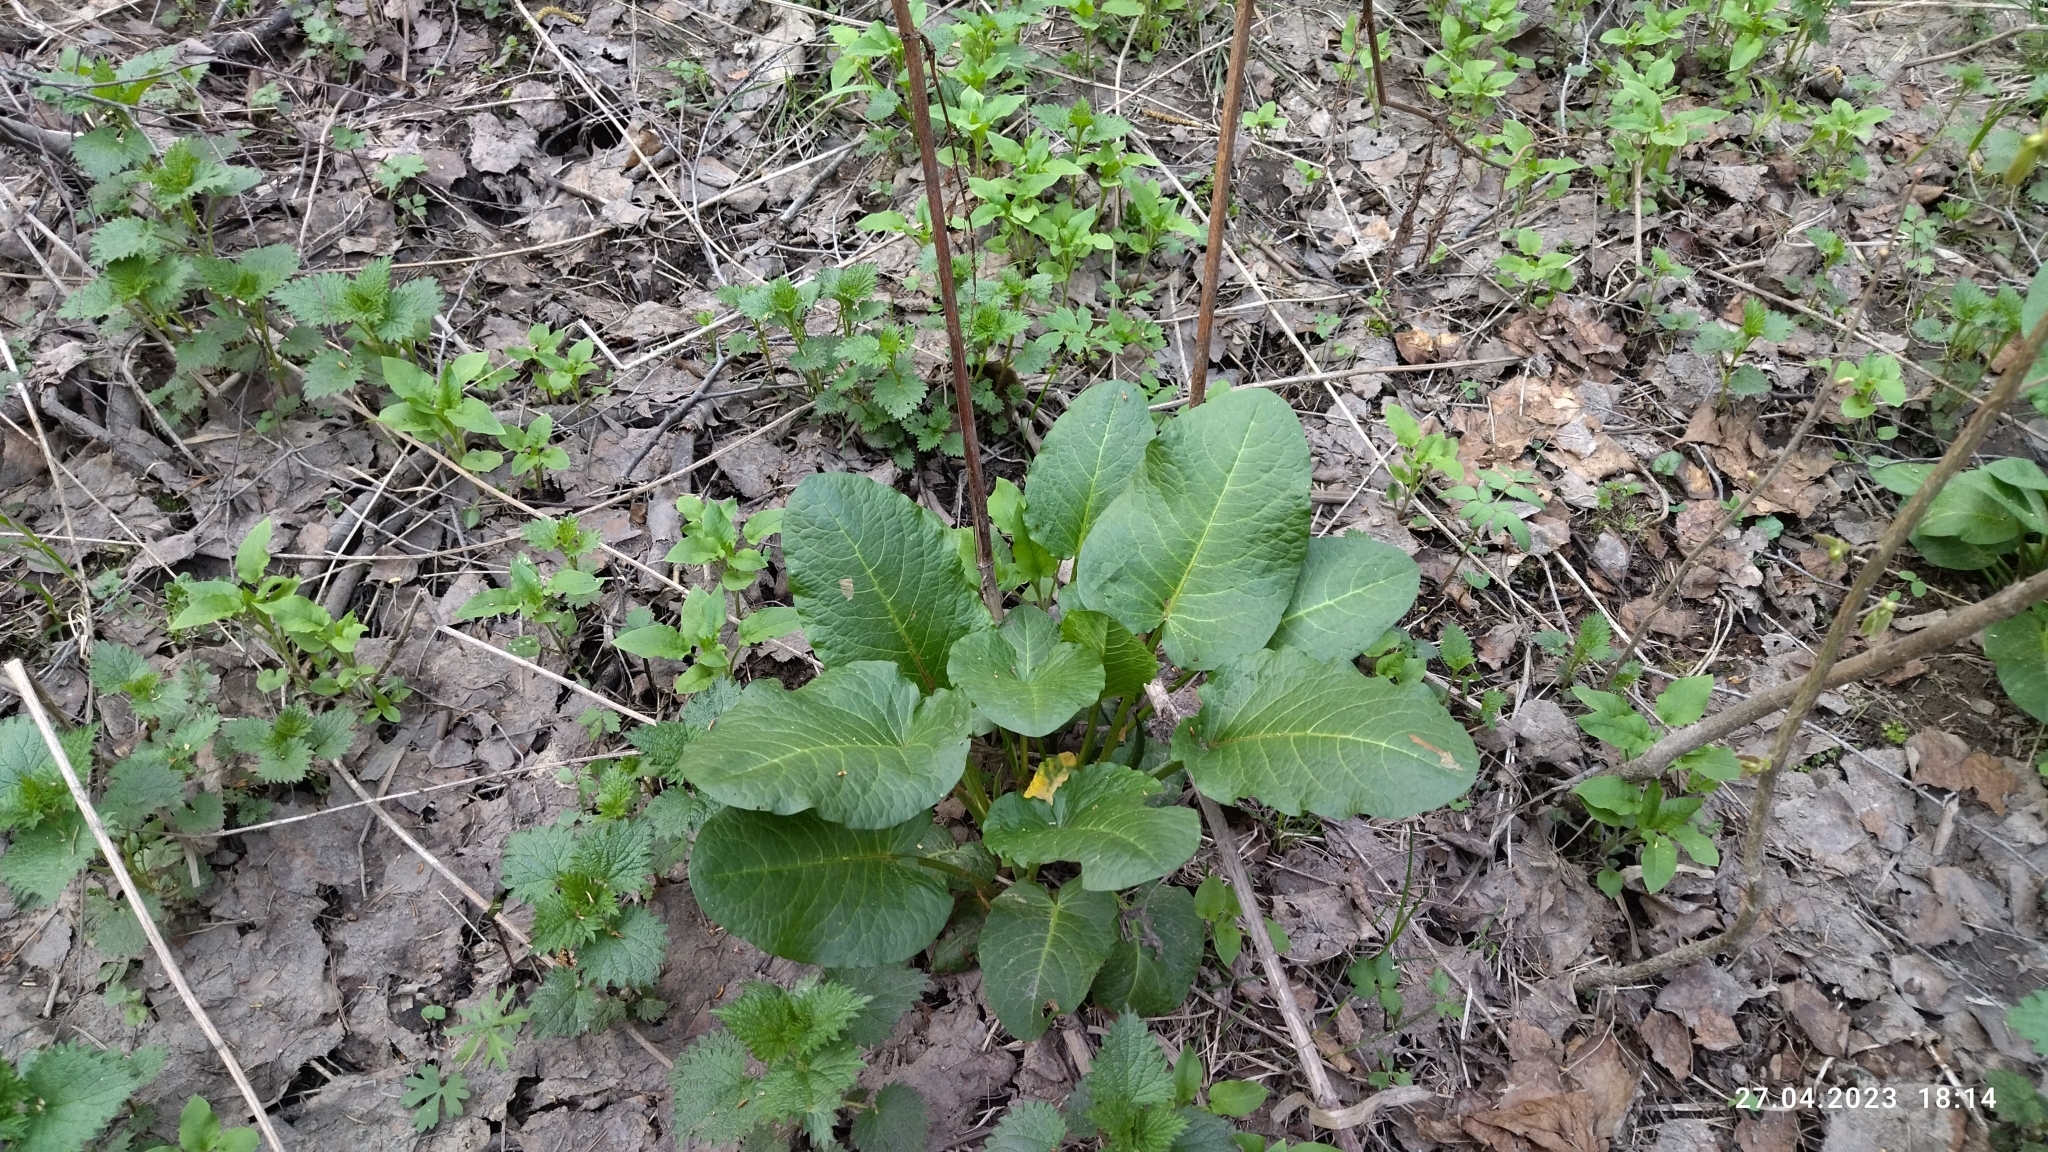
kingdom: Plantae
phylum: Tracheophyta
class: Magnoliopsida
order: Caryophyllales
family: Polygonaceae
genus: Rumex
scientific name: Rumex obtusifolius
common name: Bitter dock
